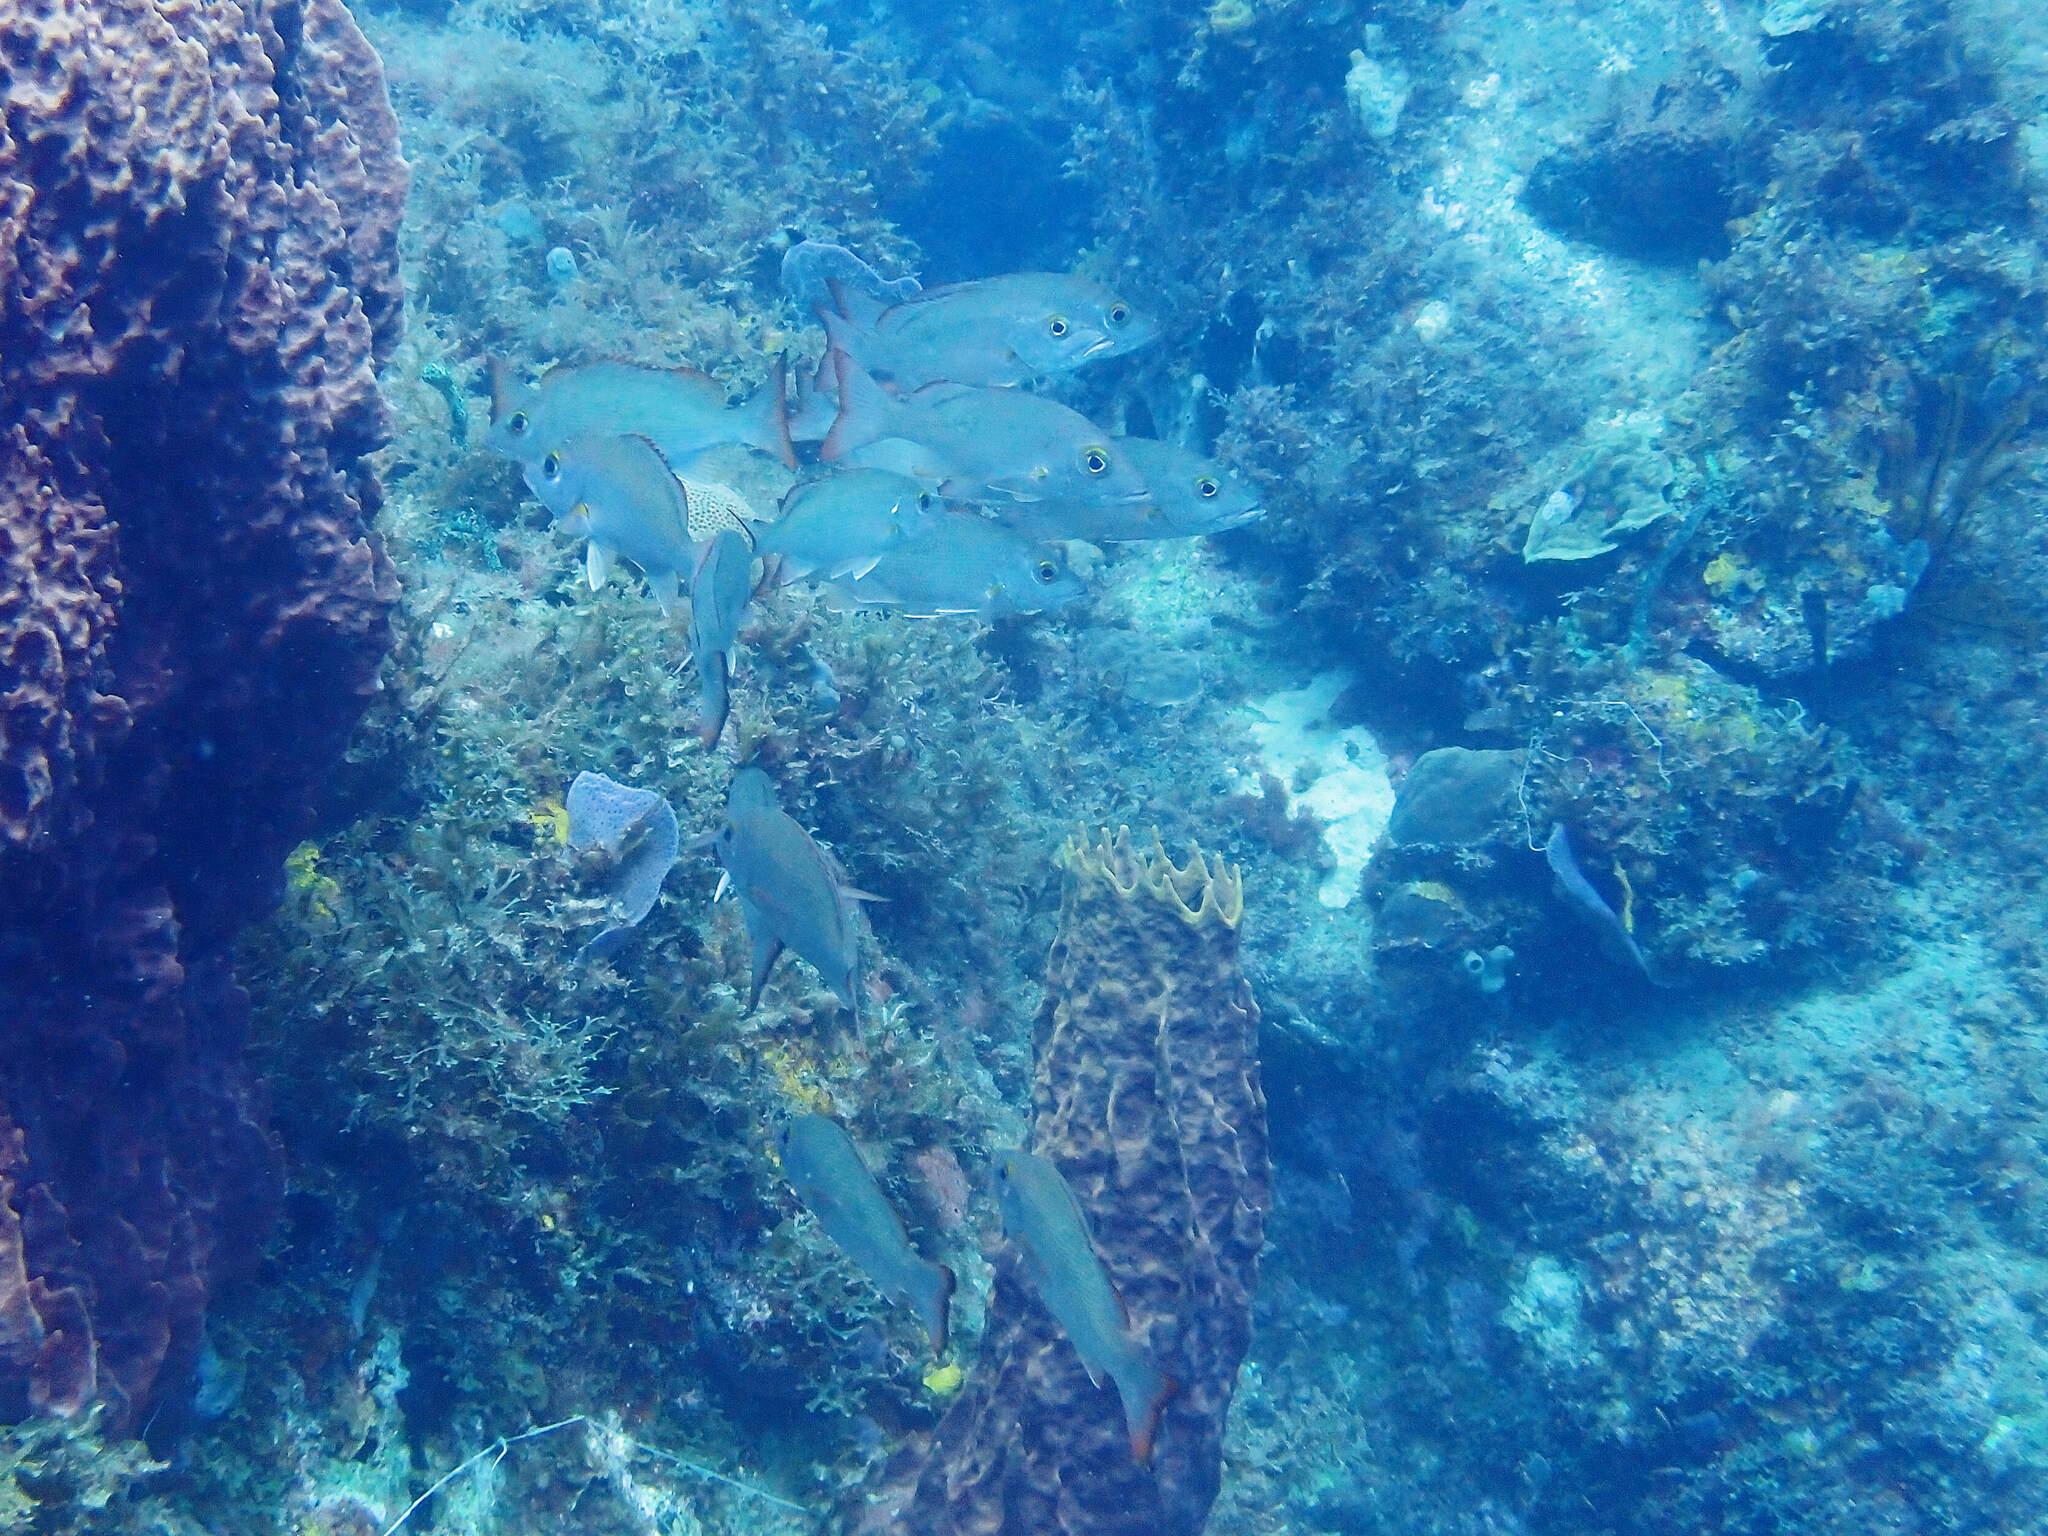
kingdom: Animalia
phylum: Chordata
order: Perciformes
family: Lutjanidae
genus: Lutjanus
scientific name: Lutjanus mahogoni
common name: Spot snapper
